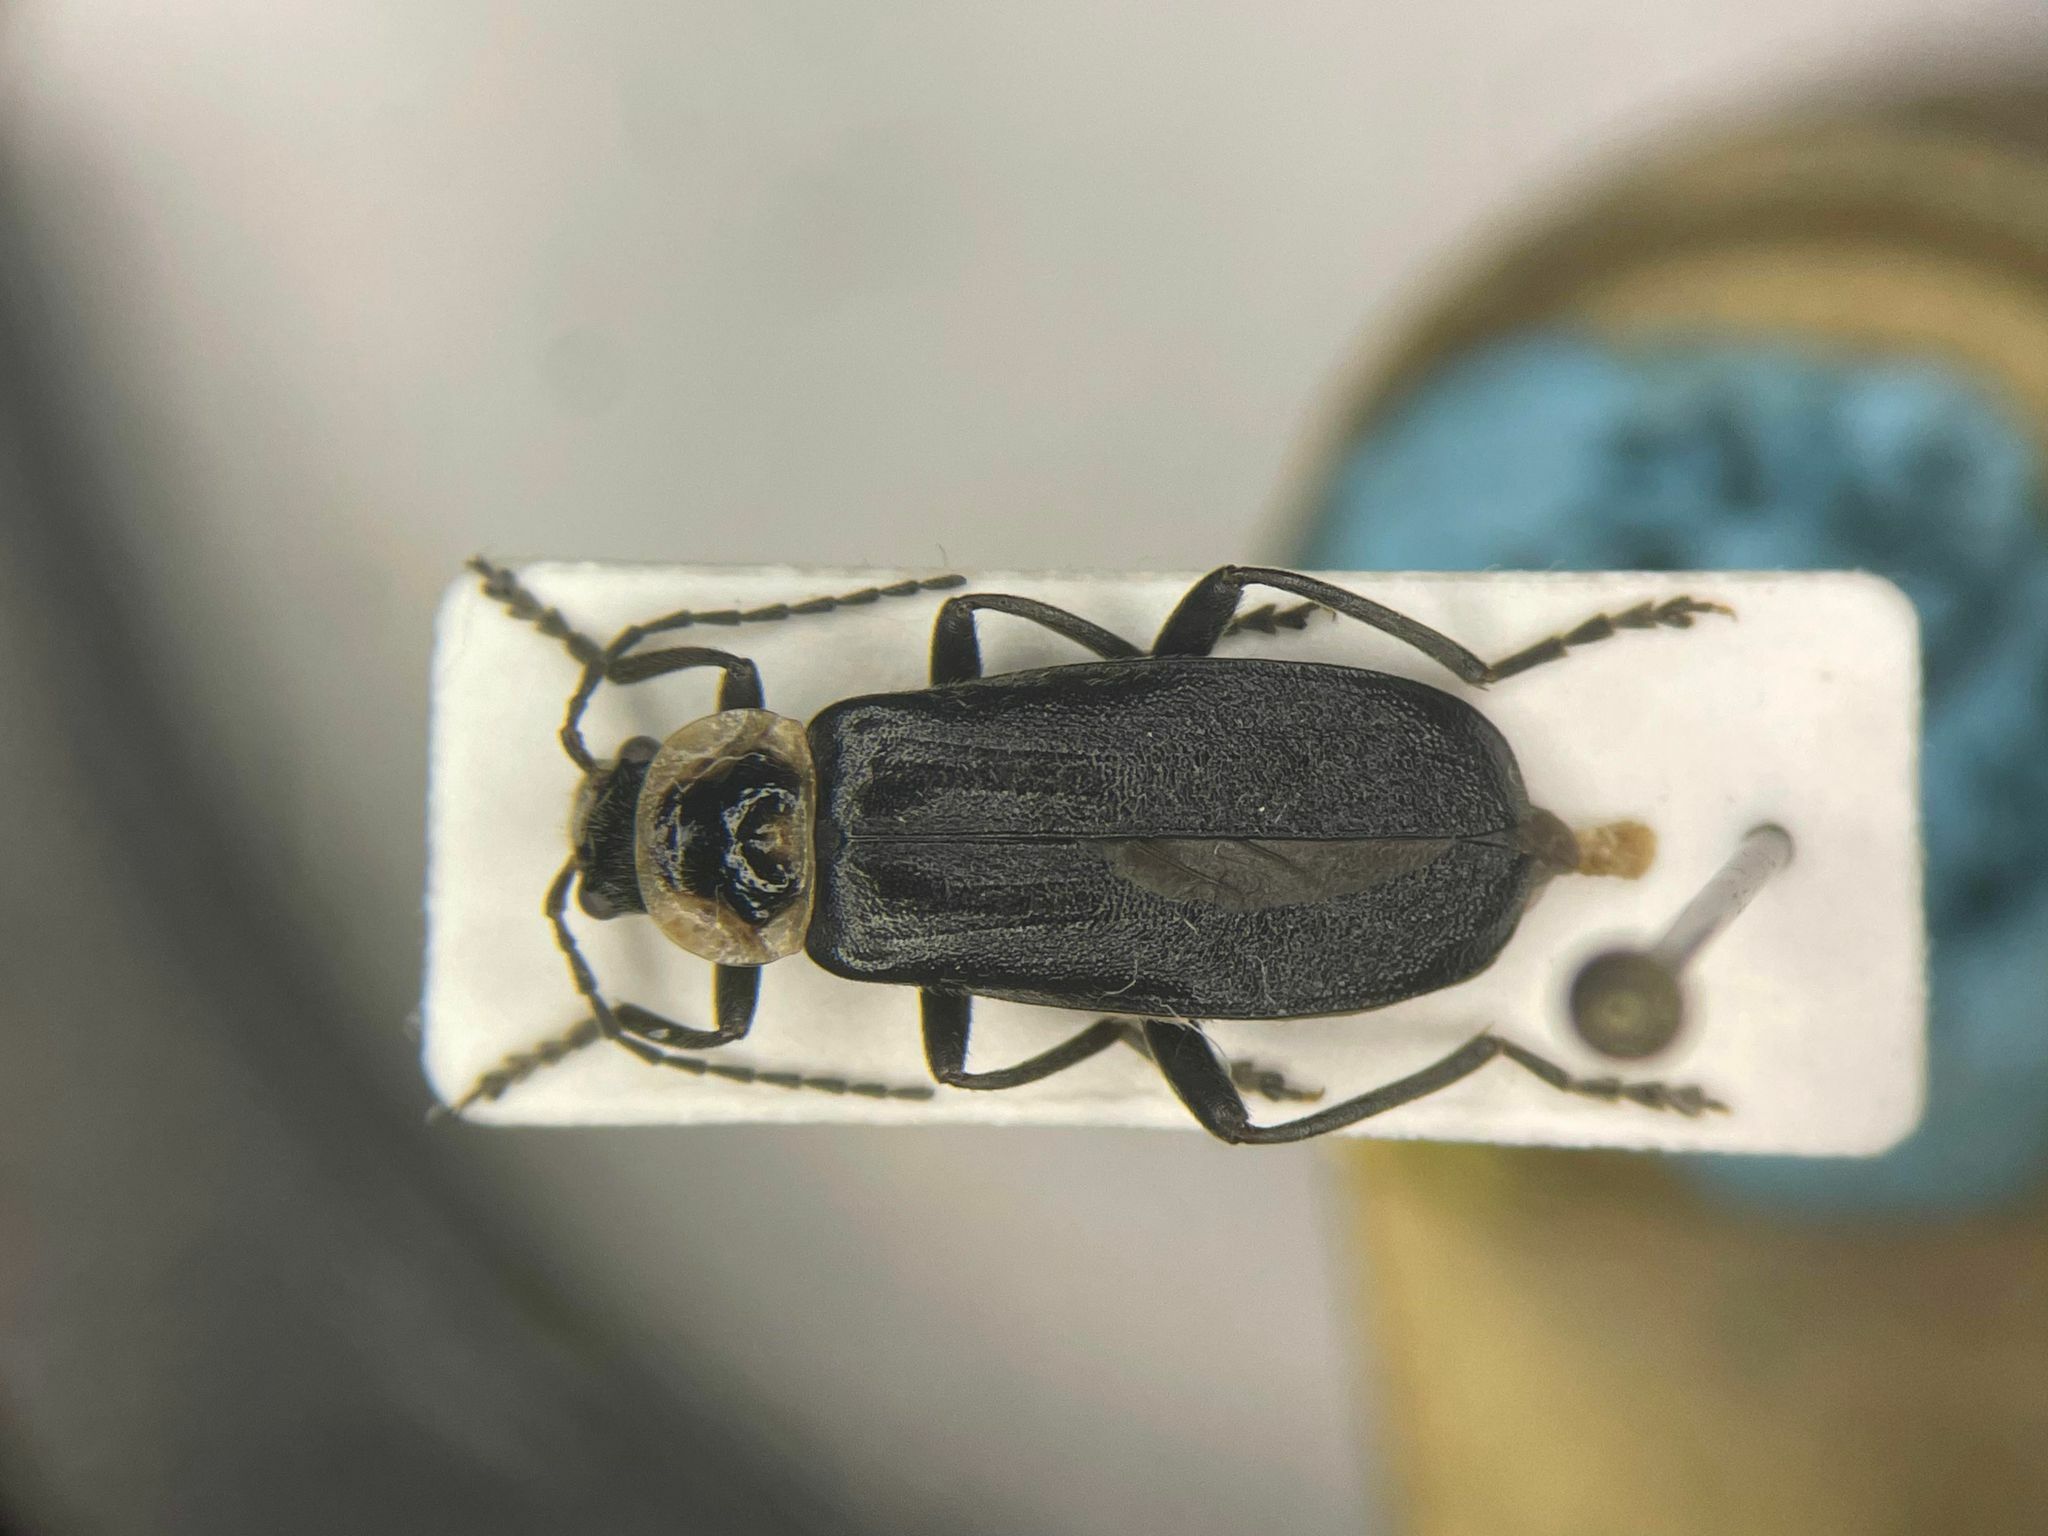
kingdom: Animalia
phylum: Arthropoda
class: Insecta
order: Coleoptera
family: Cantharidae
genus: Atalantycha
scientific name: Atalantycha neglecta
